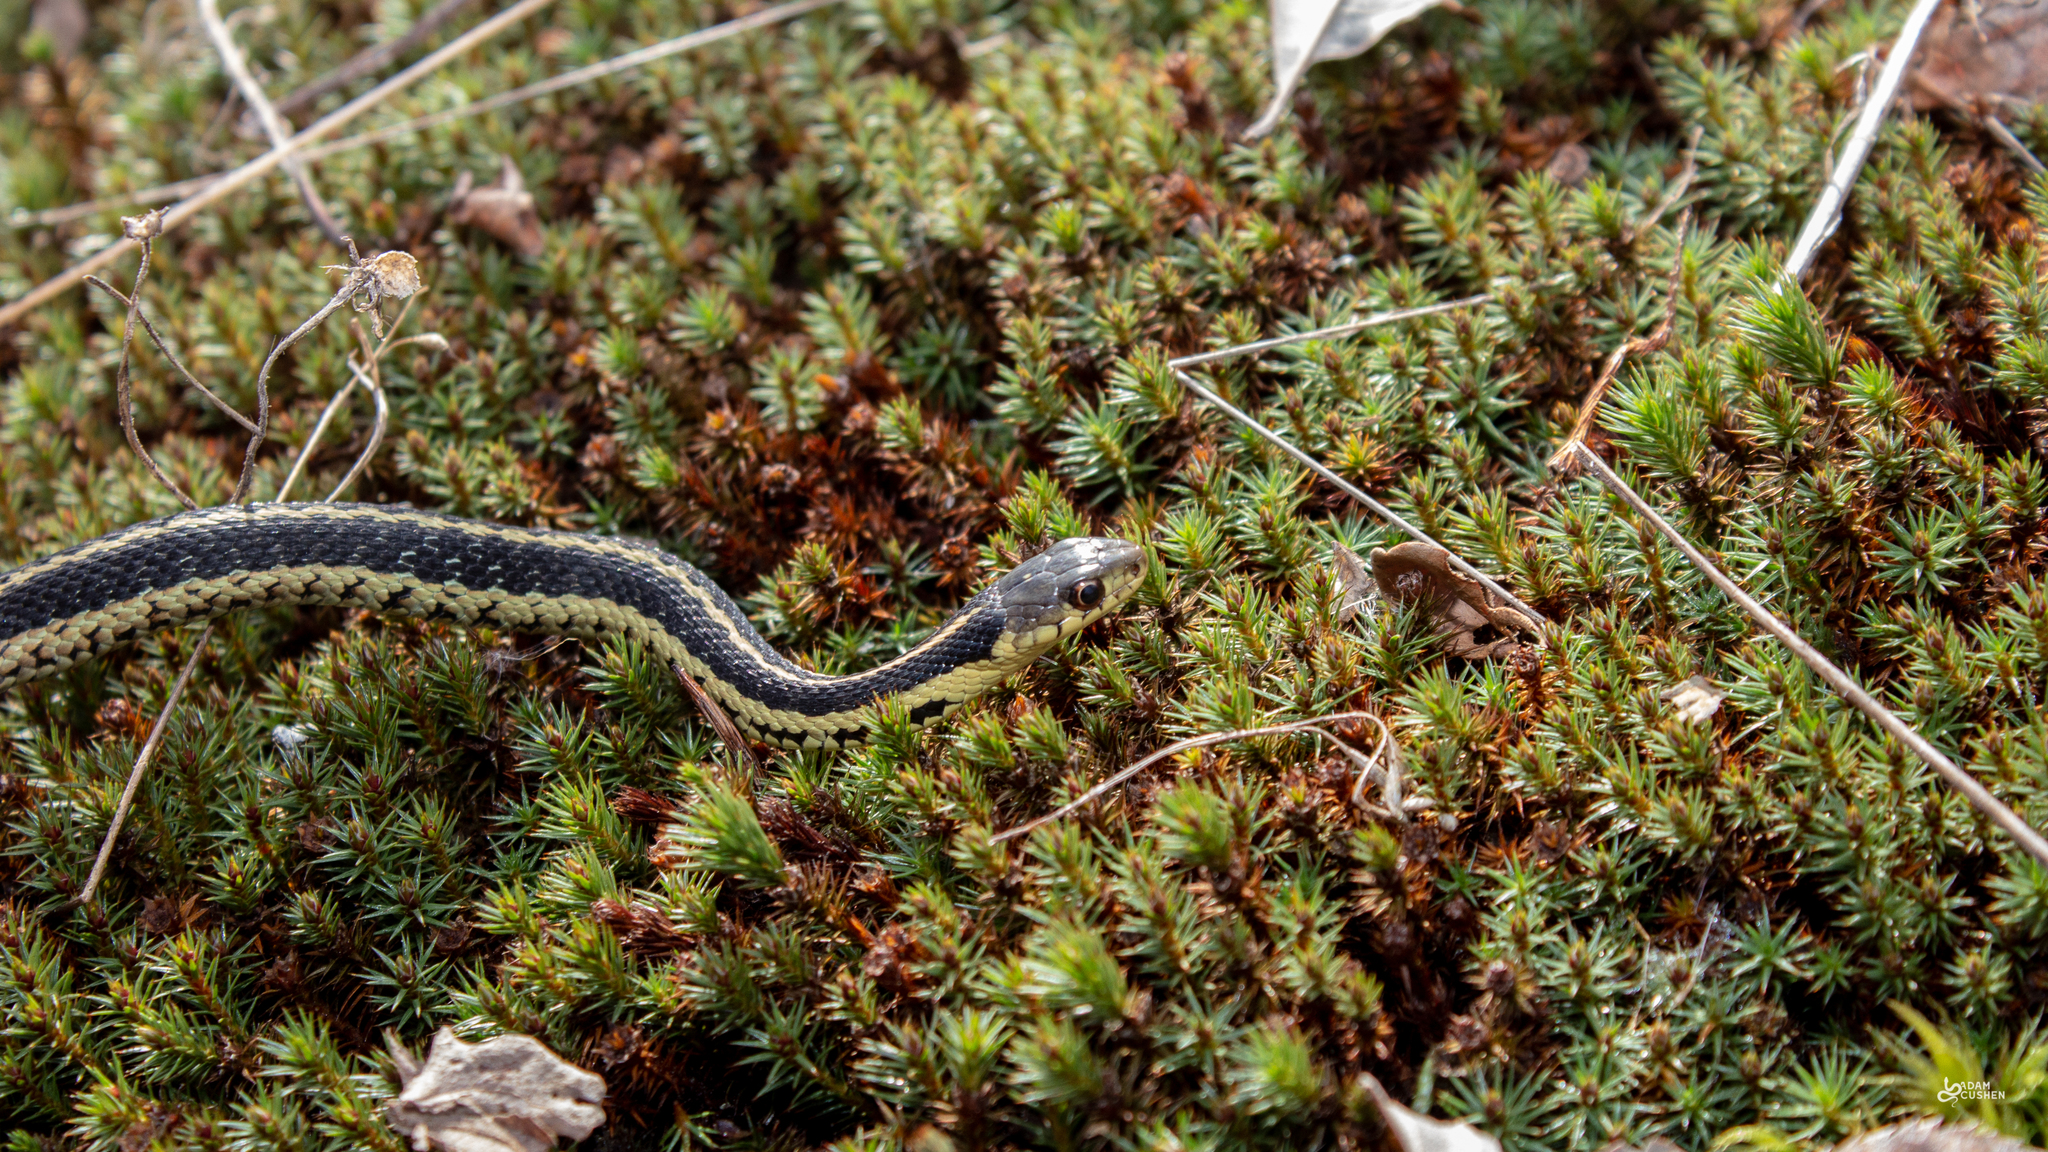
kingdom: Animalia
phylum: Chordata
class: Squamata
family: Colubridae
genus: Thamnophis
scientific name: Thamnophis sirtalis
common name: Common garter snake
